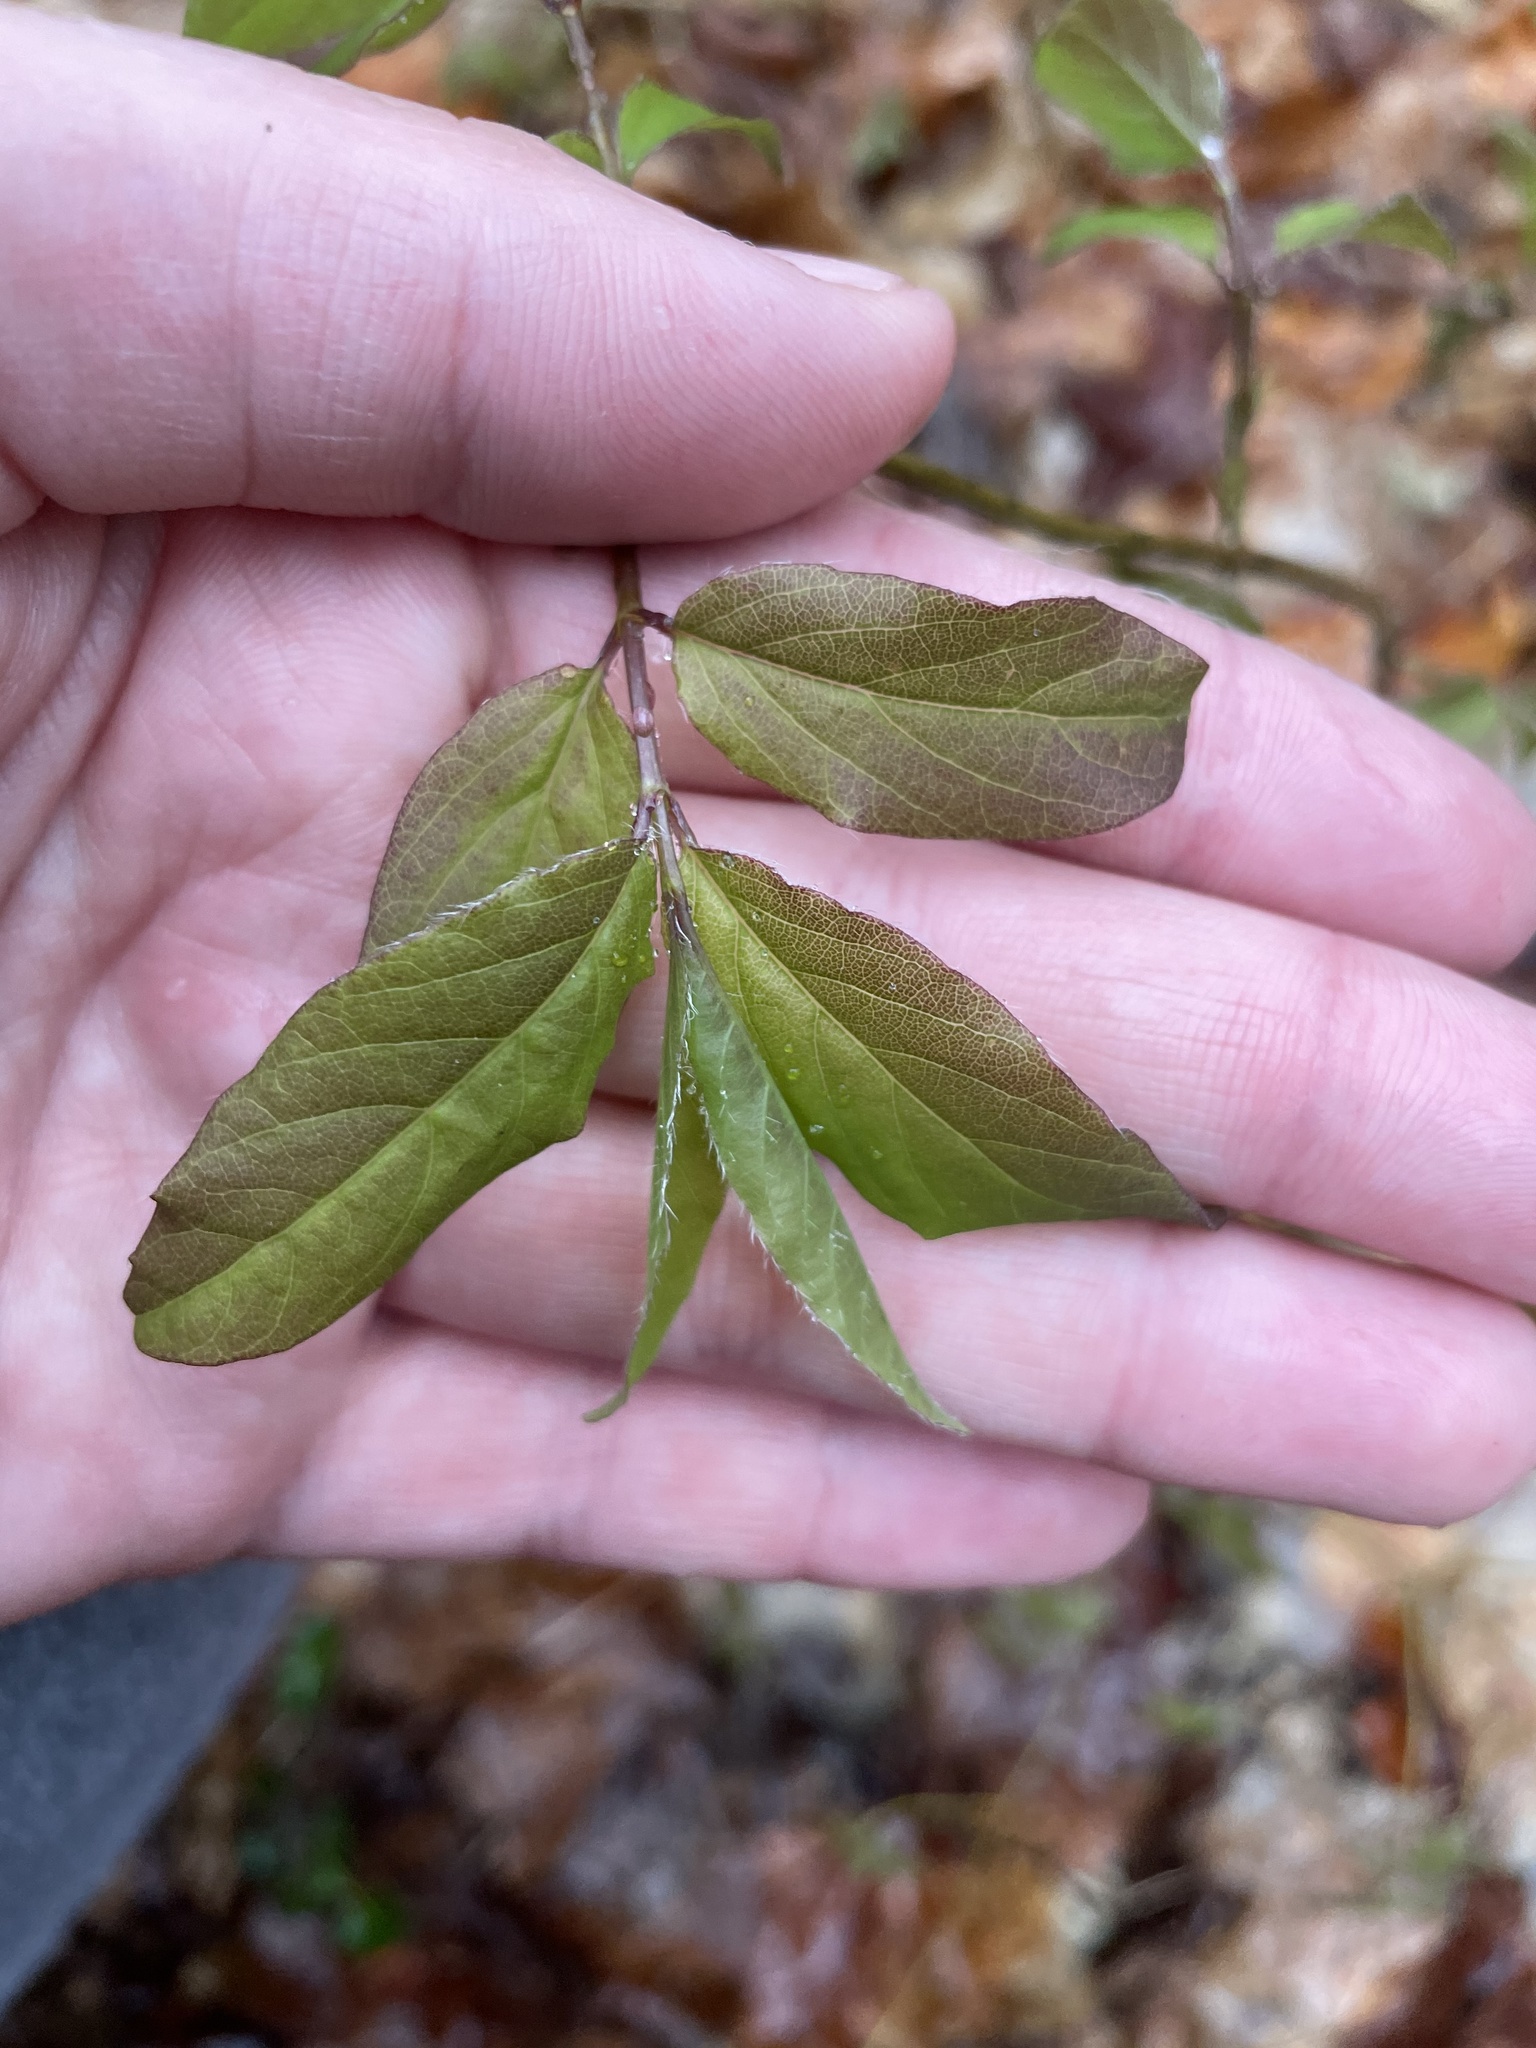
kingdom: Plantae
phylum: Tracheophyta
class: Magnoliopsida
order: Dipsacales
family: Caprifoliaceae
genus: Lonicera
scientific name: Lonicera canadensis
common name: American fly-honeysuckle
